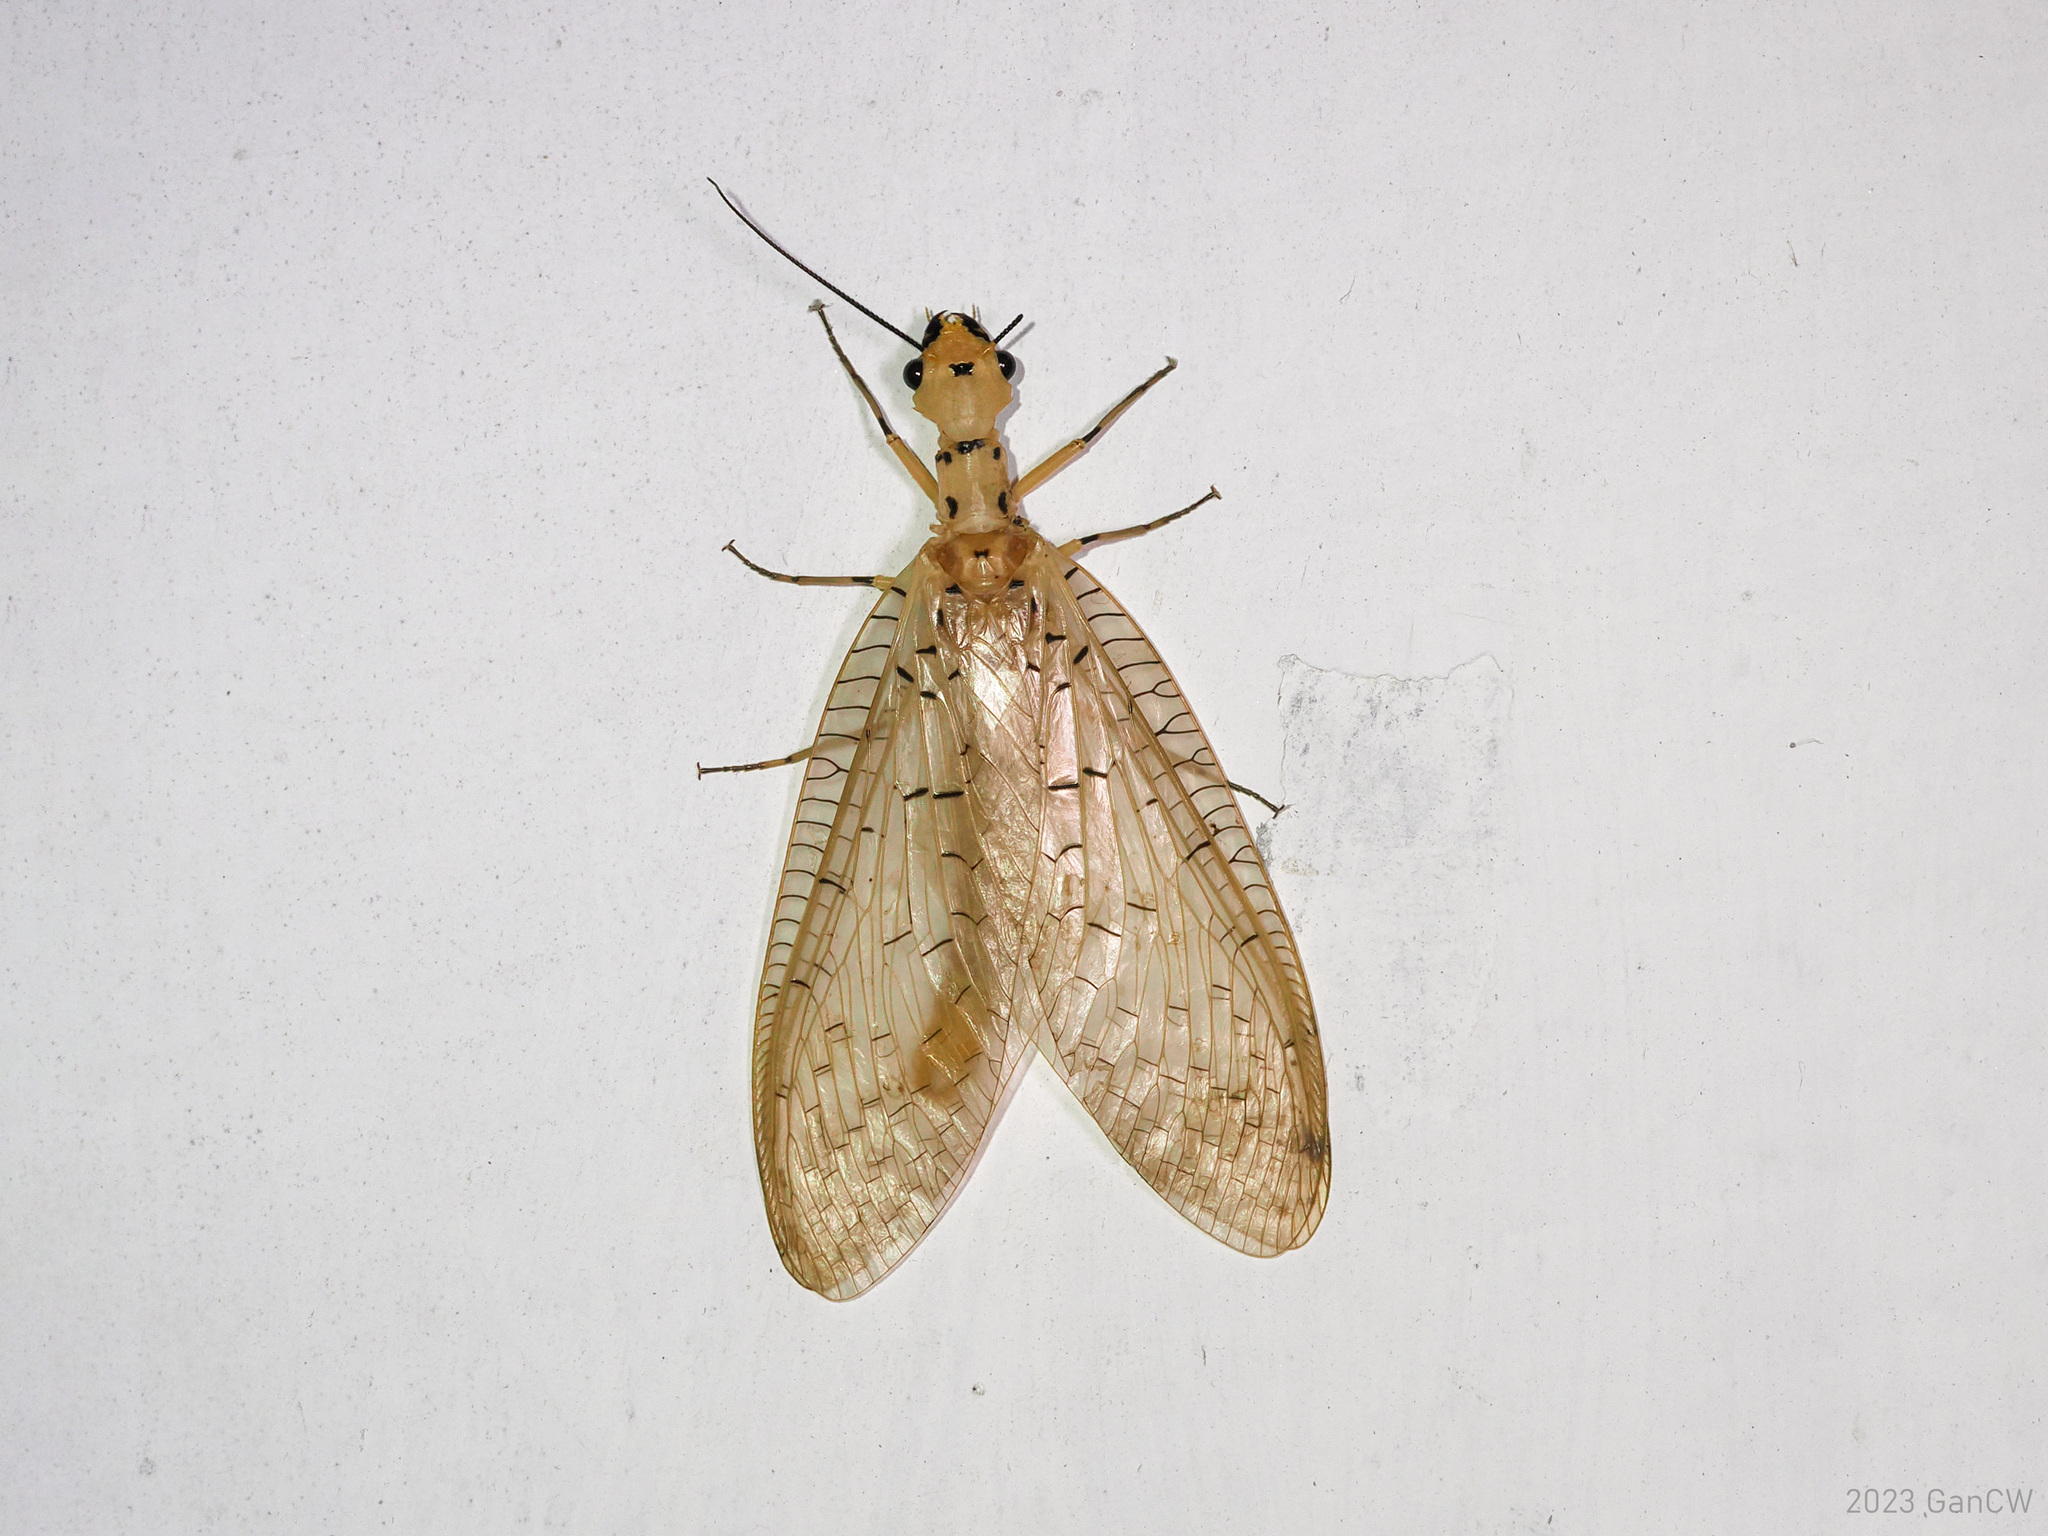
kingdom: Animalia
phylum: Arthropoda
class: Insecta
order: Megaloptera
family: Corydalidae
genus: Nevromus
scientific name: Nevromus testaceus
